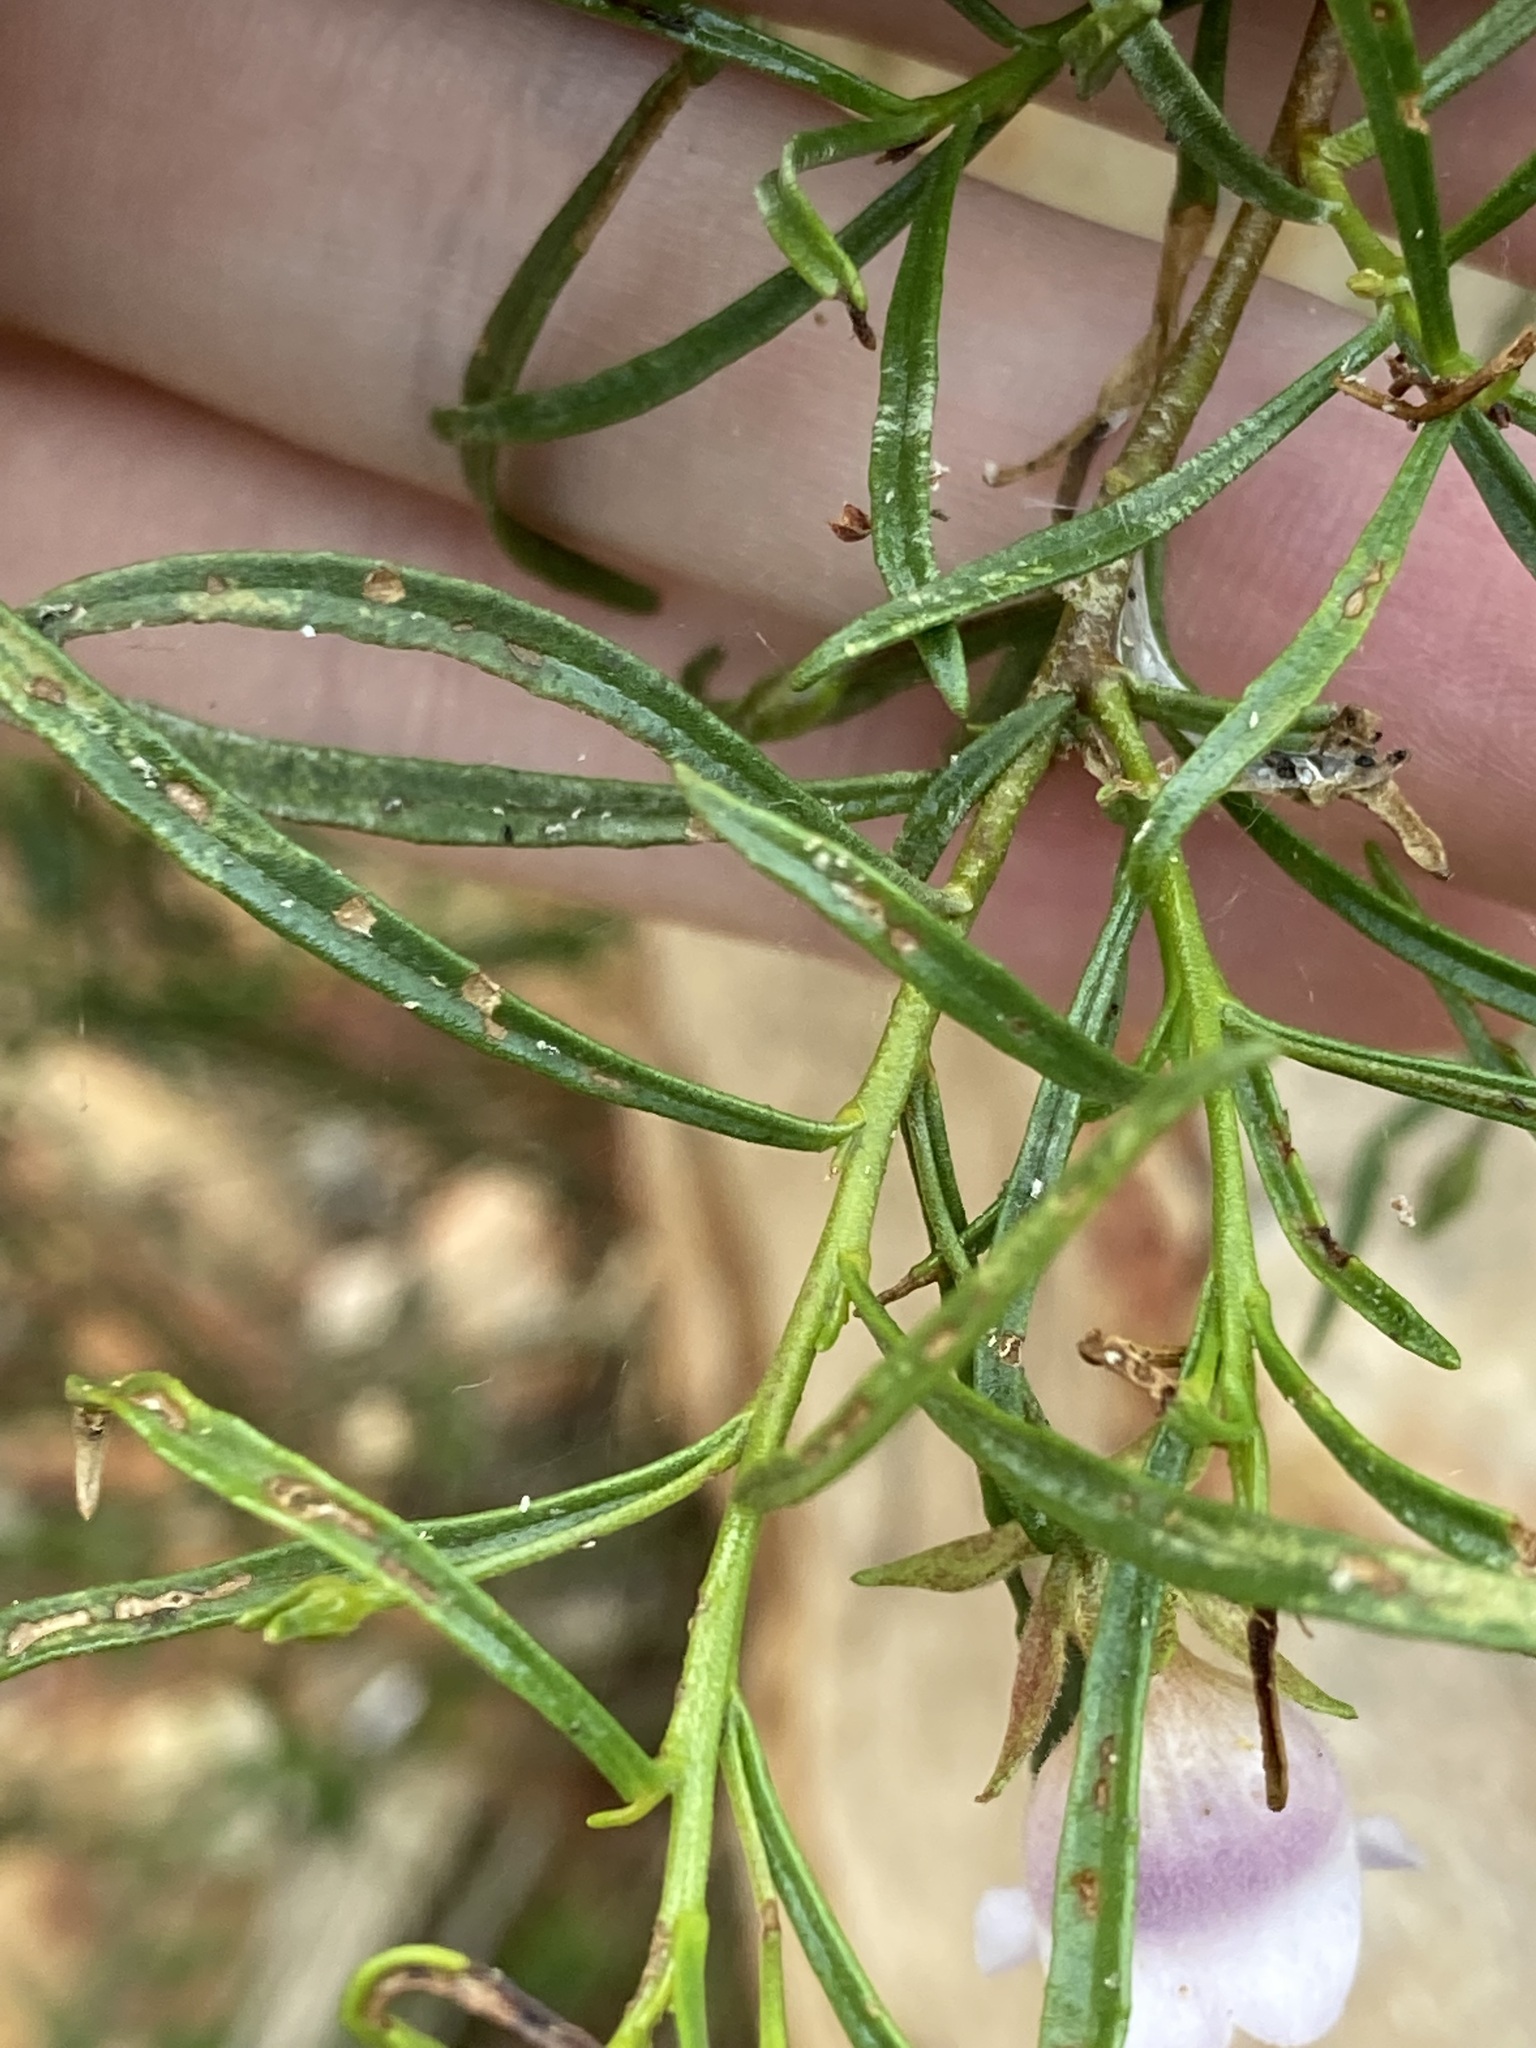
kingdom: Plantae
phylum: Tracheophyta
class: Magnoliopsida
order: Lamiales
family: Scrophulariaceae
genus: Eremophila
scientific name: Eremophila clarkei
